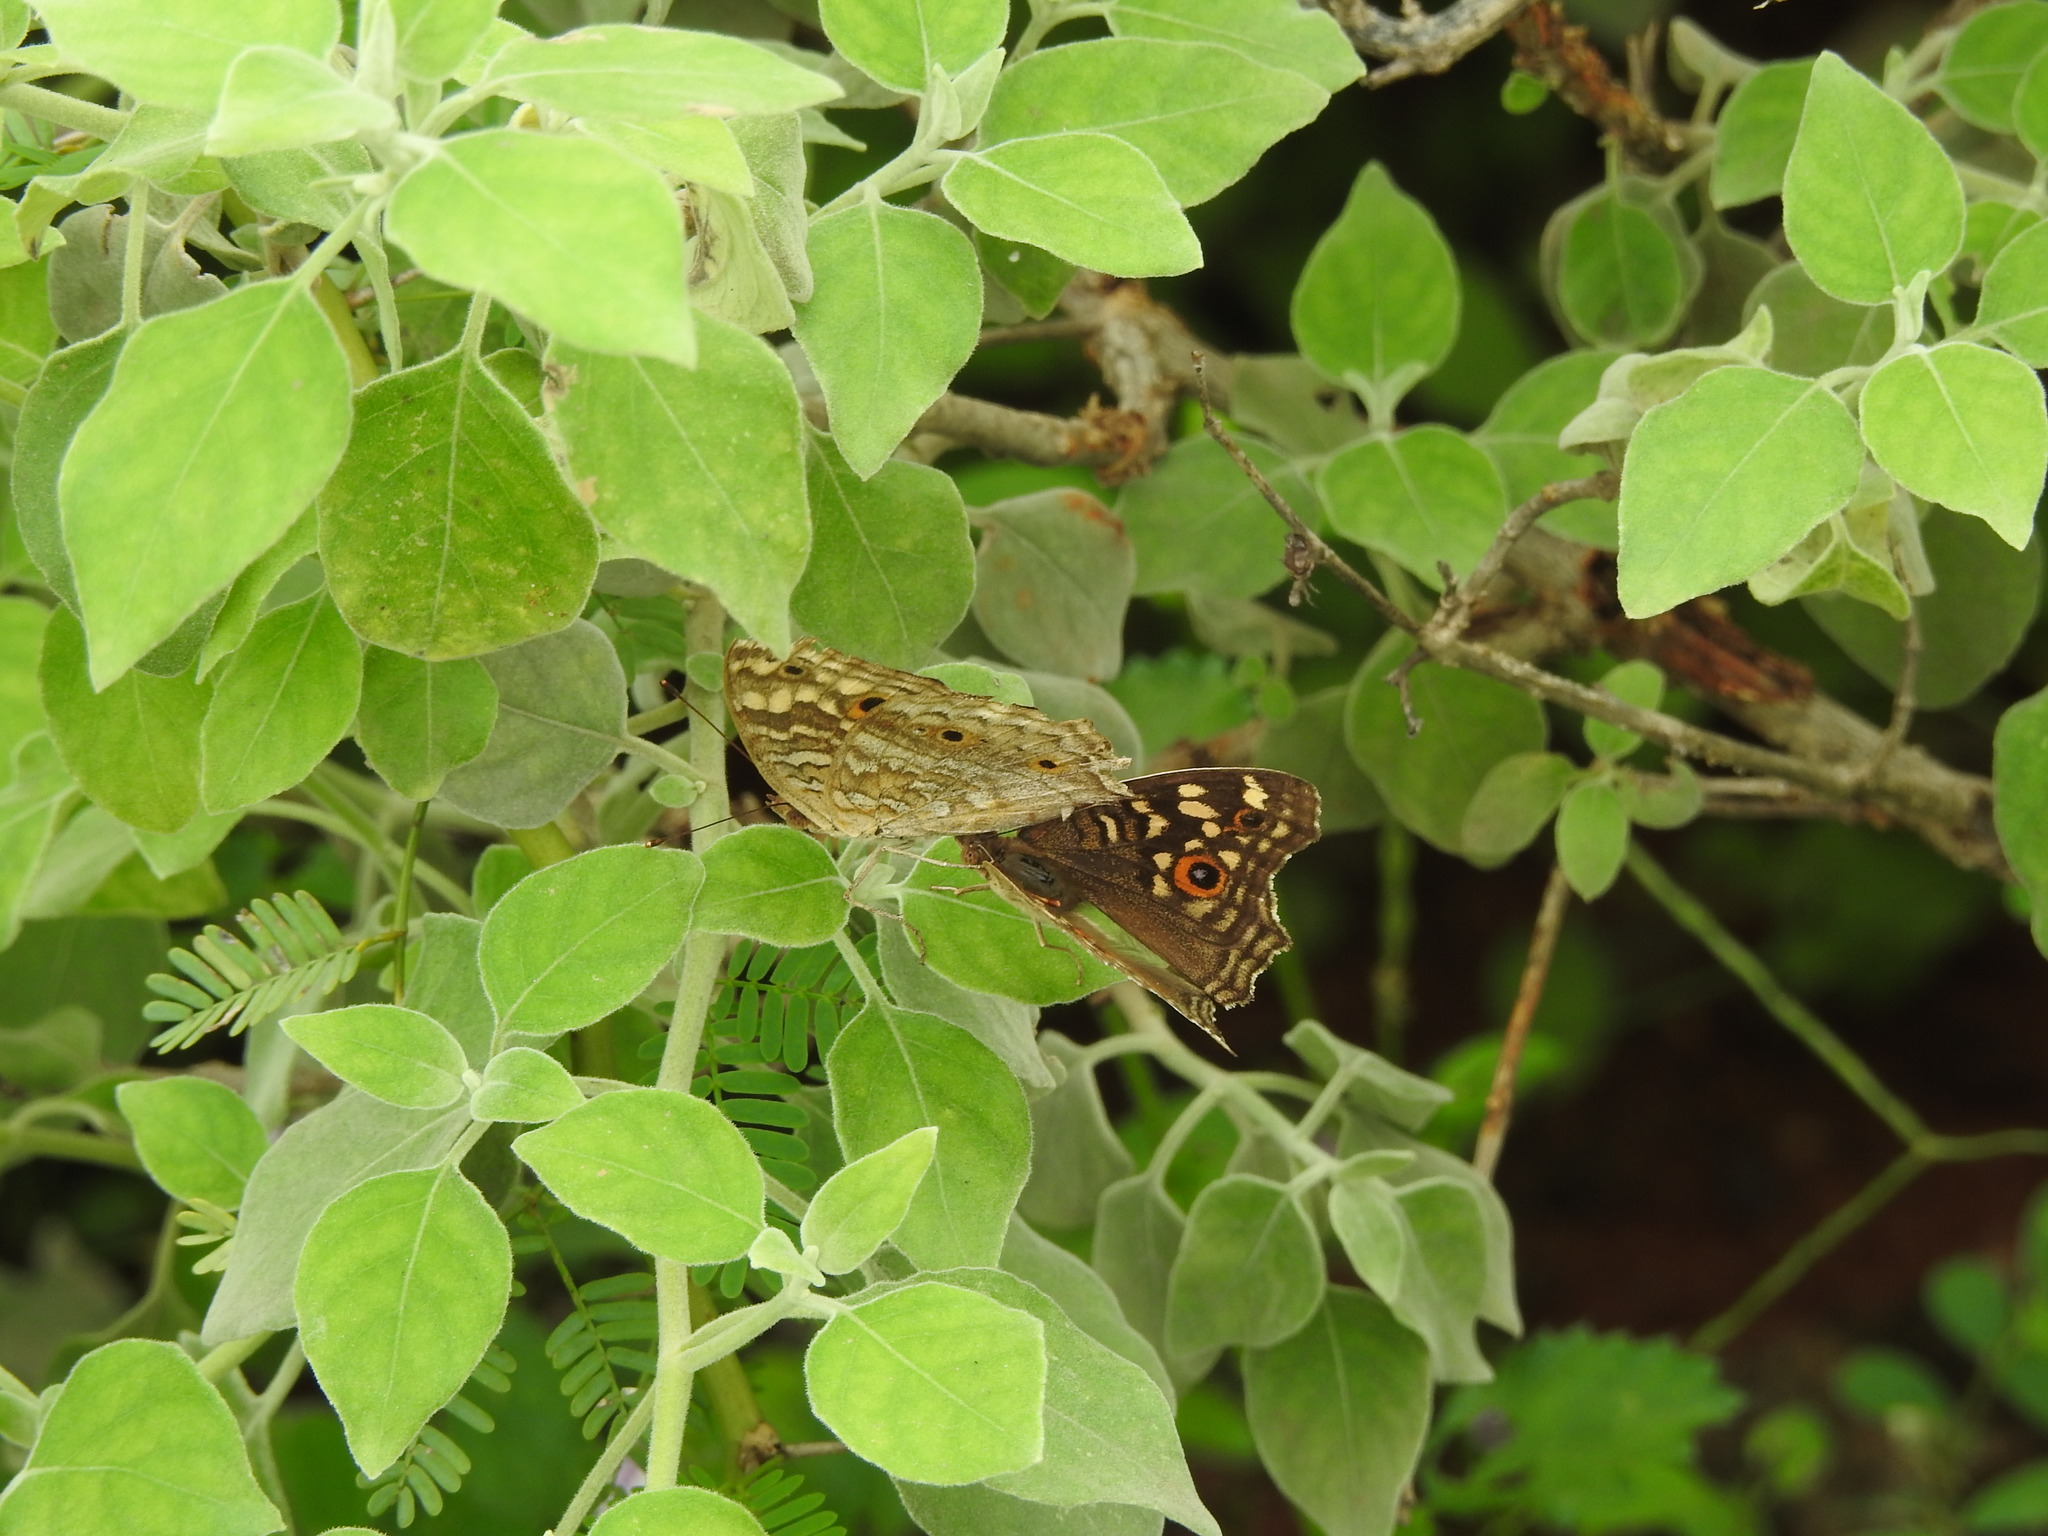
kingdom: Animalia
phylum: Arthropoda
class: Insecta
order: Lepidoptera
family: Nymphalidae
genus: Junonia
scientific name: Junonia lemonias
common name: Lemon pansy
